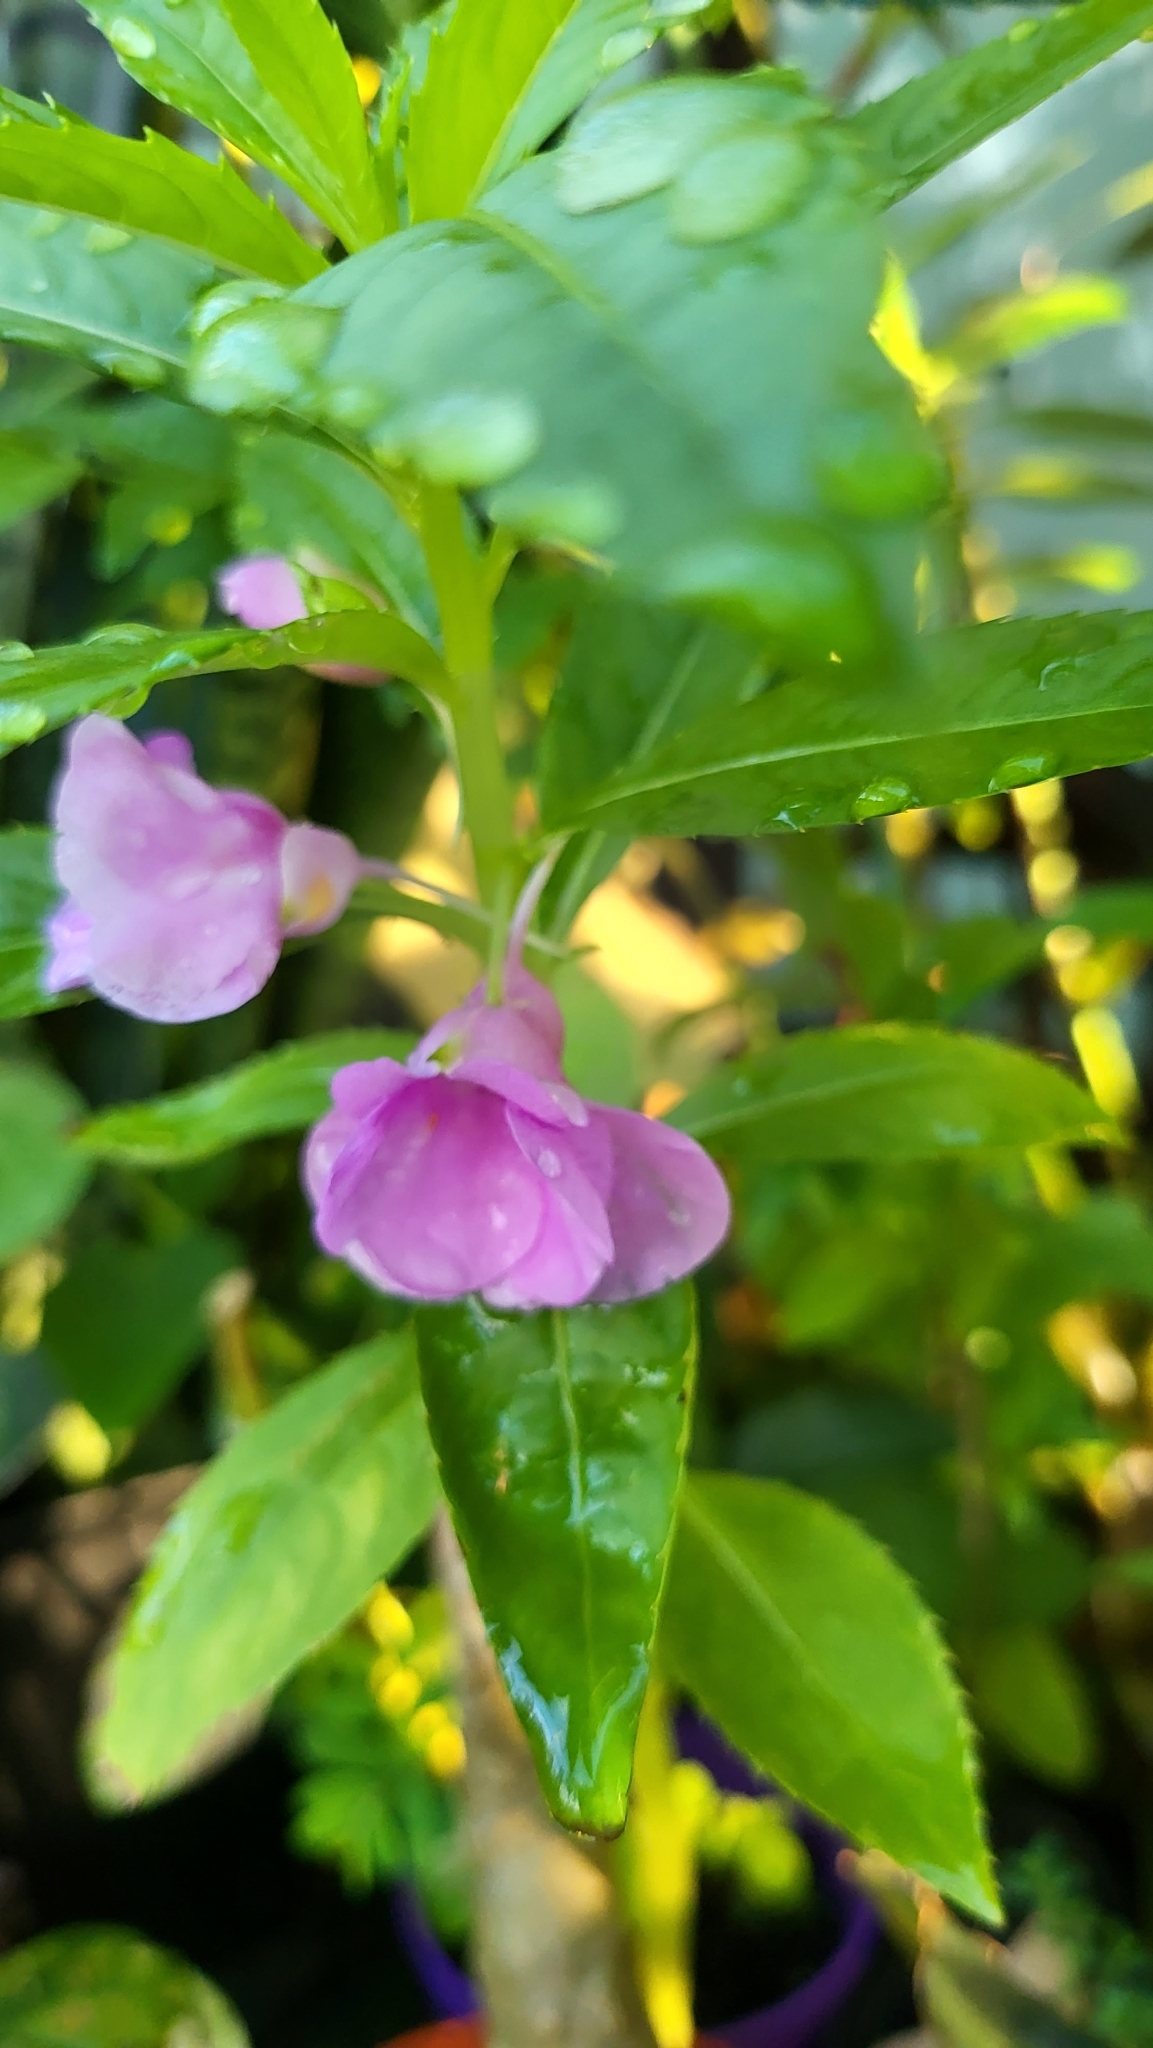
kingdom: Plantae
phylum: Tracheophyta
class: Magnoliopsida
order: Ericales
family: Balsaminaceae
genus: Impatiens
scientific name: Impatiens balsamina
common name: Balsam
